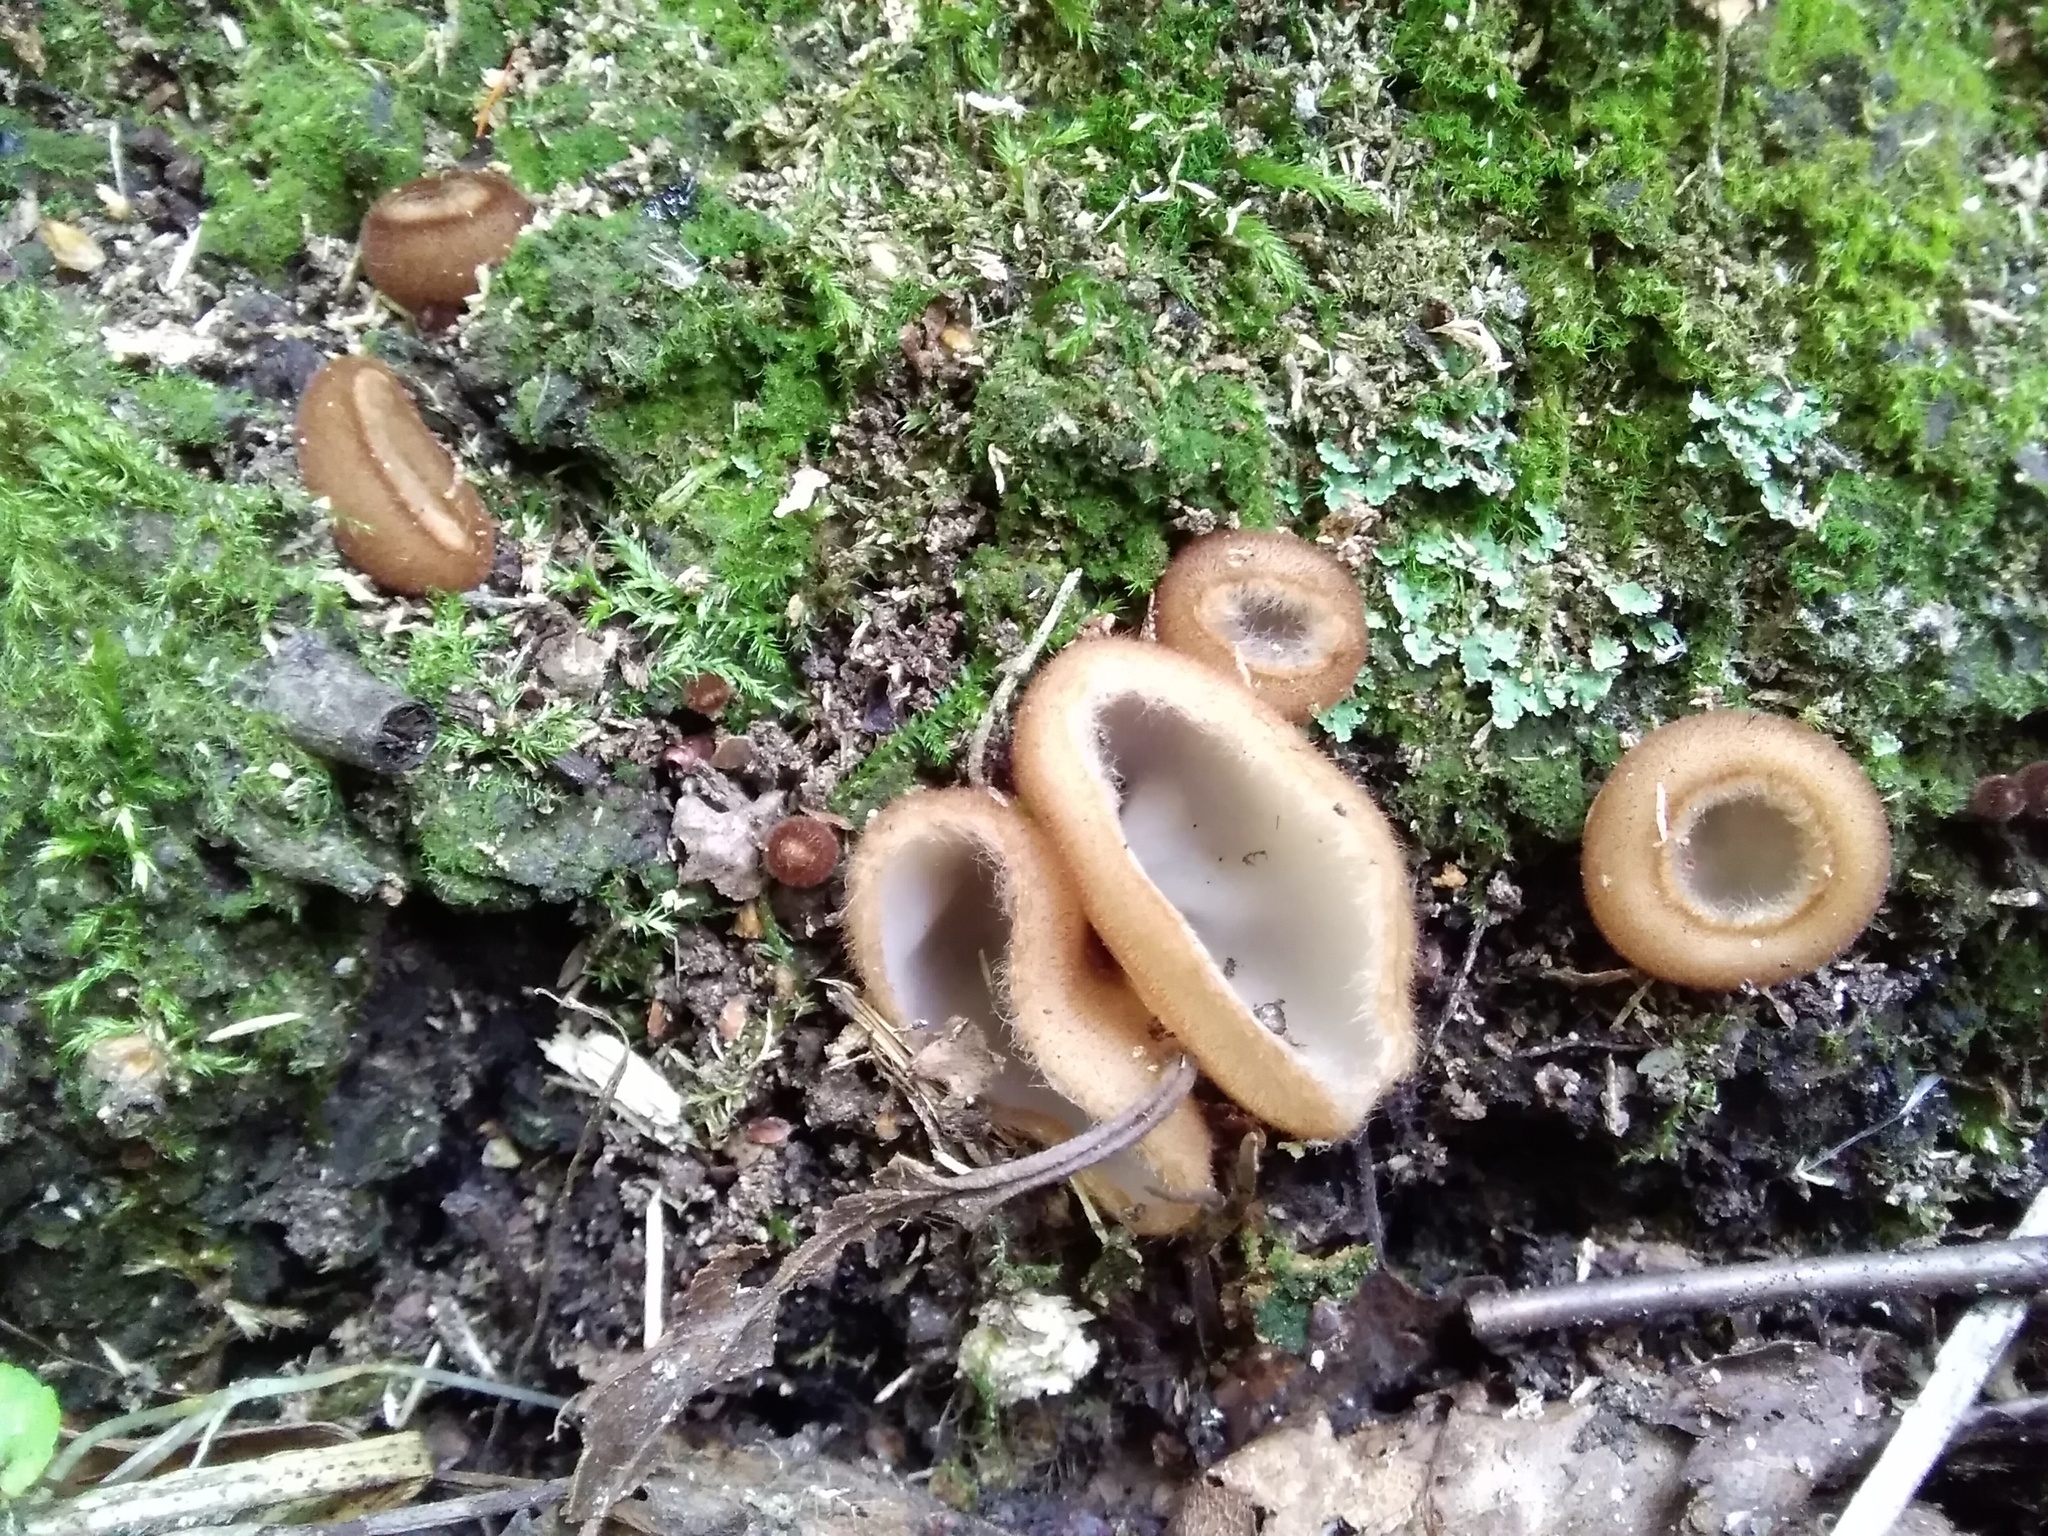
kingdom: Fungi
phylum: Ascomycota
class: Pezizomycetes
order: Pezizales
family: Pyronemataceae
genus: Humaria
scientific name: Humaria hemisphaerica
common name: Glazed cup
